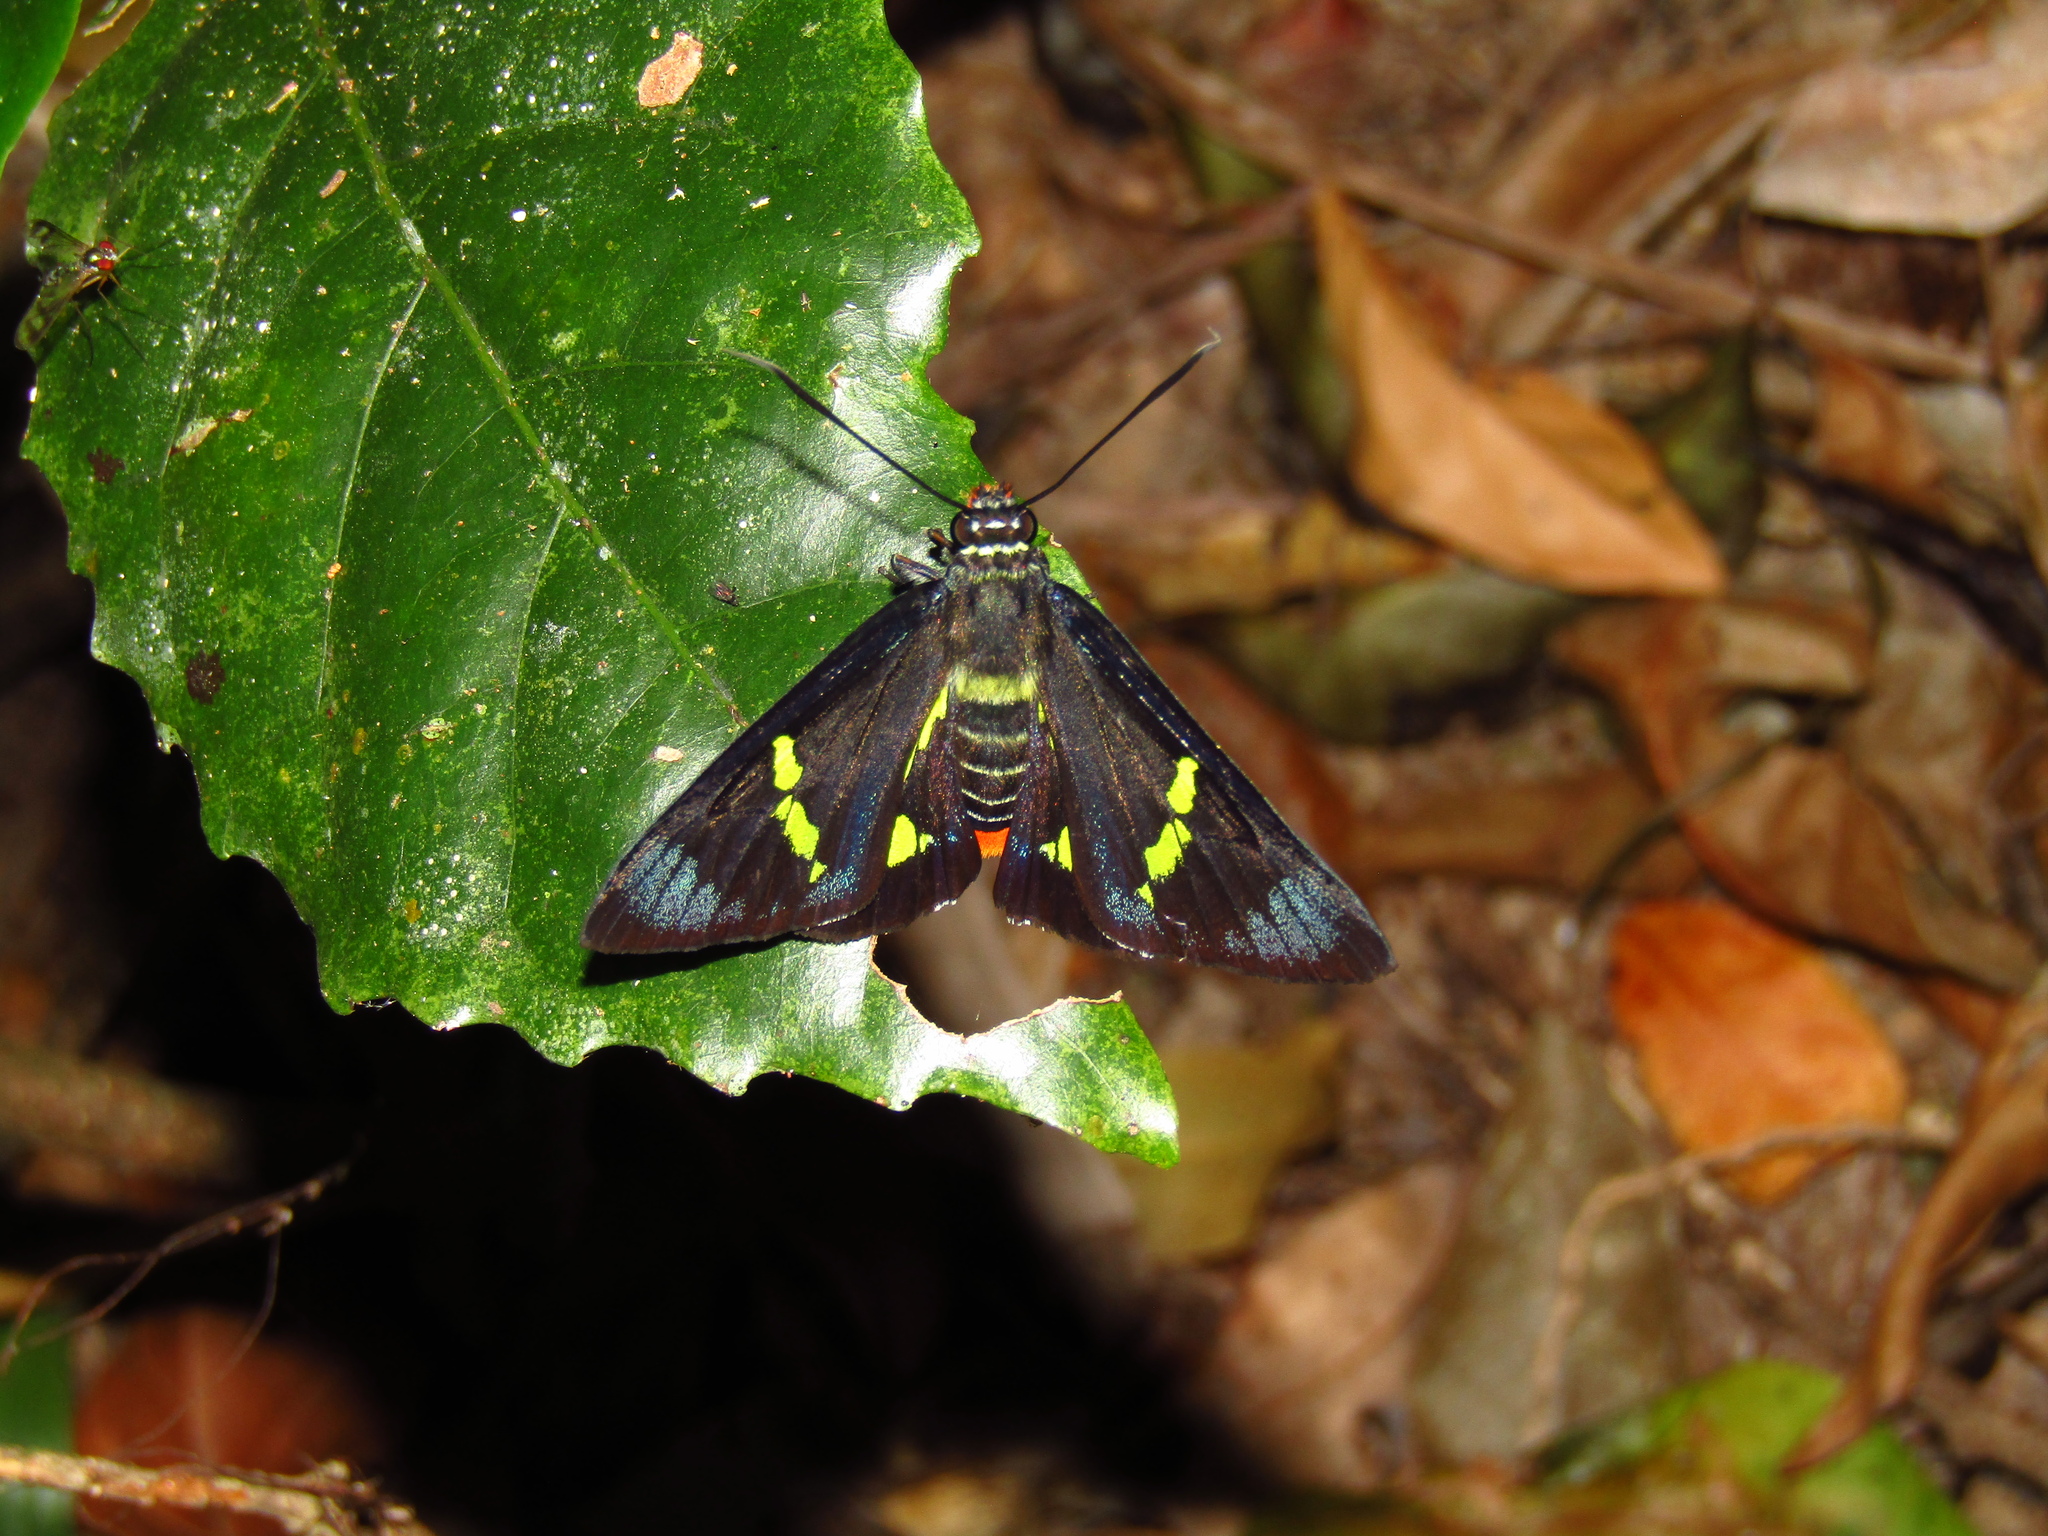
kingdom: Animalia
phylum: Arthropoda
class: Insecta
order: Lepidoptera
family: Hesperiidae
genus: Euschemon
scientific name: Euschemon rafflesia
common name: Regent skipper
